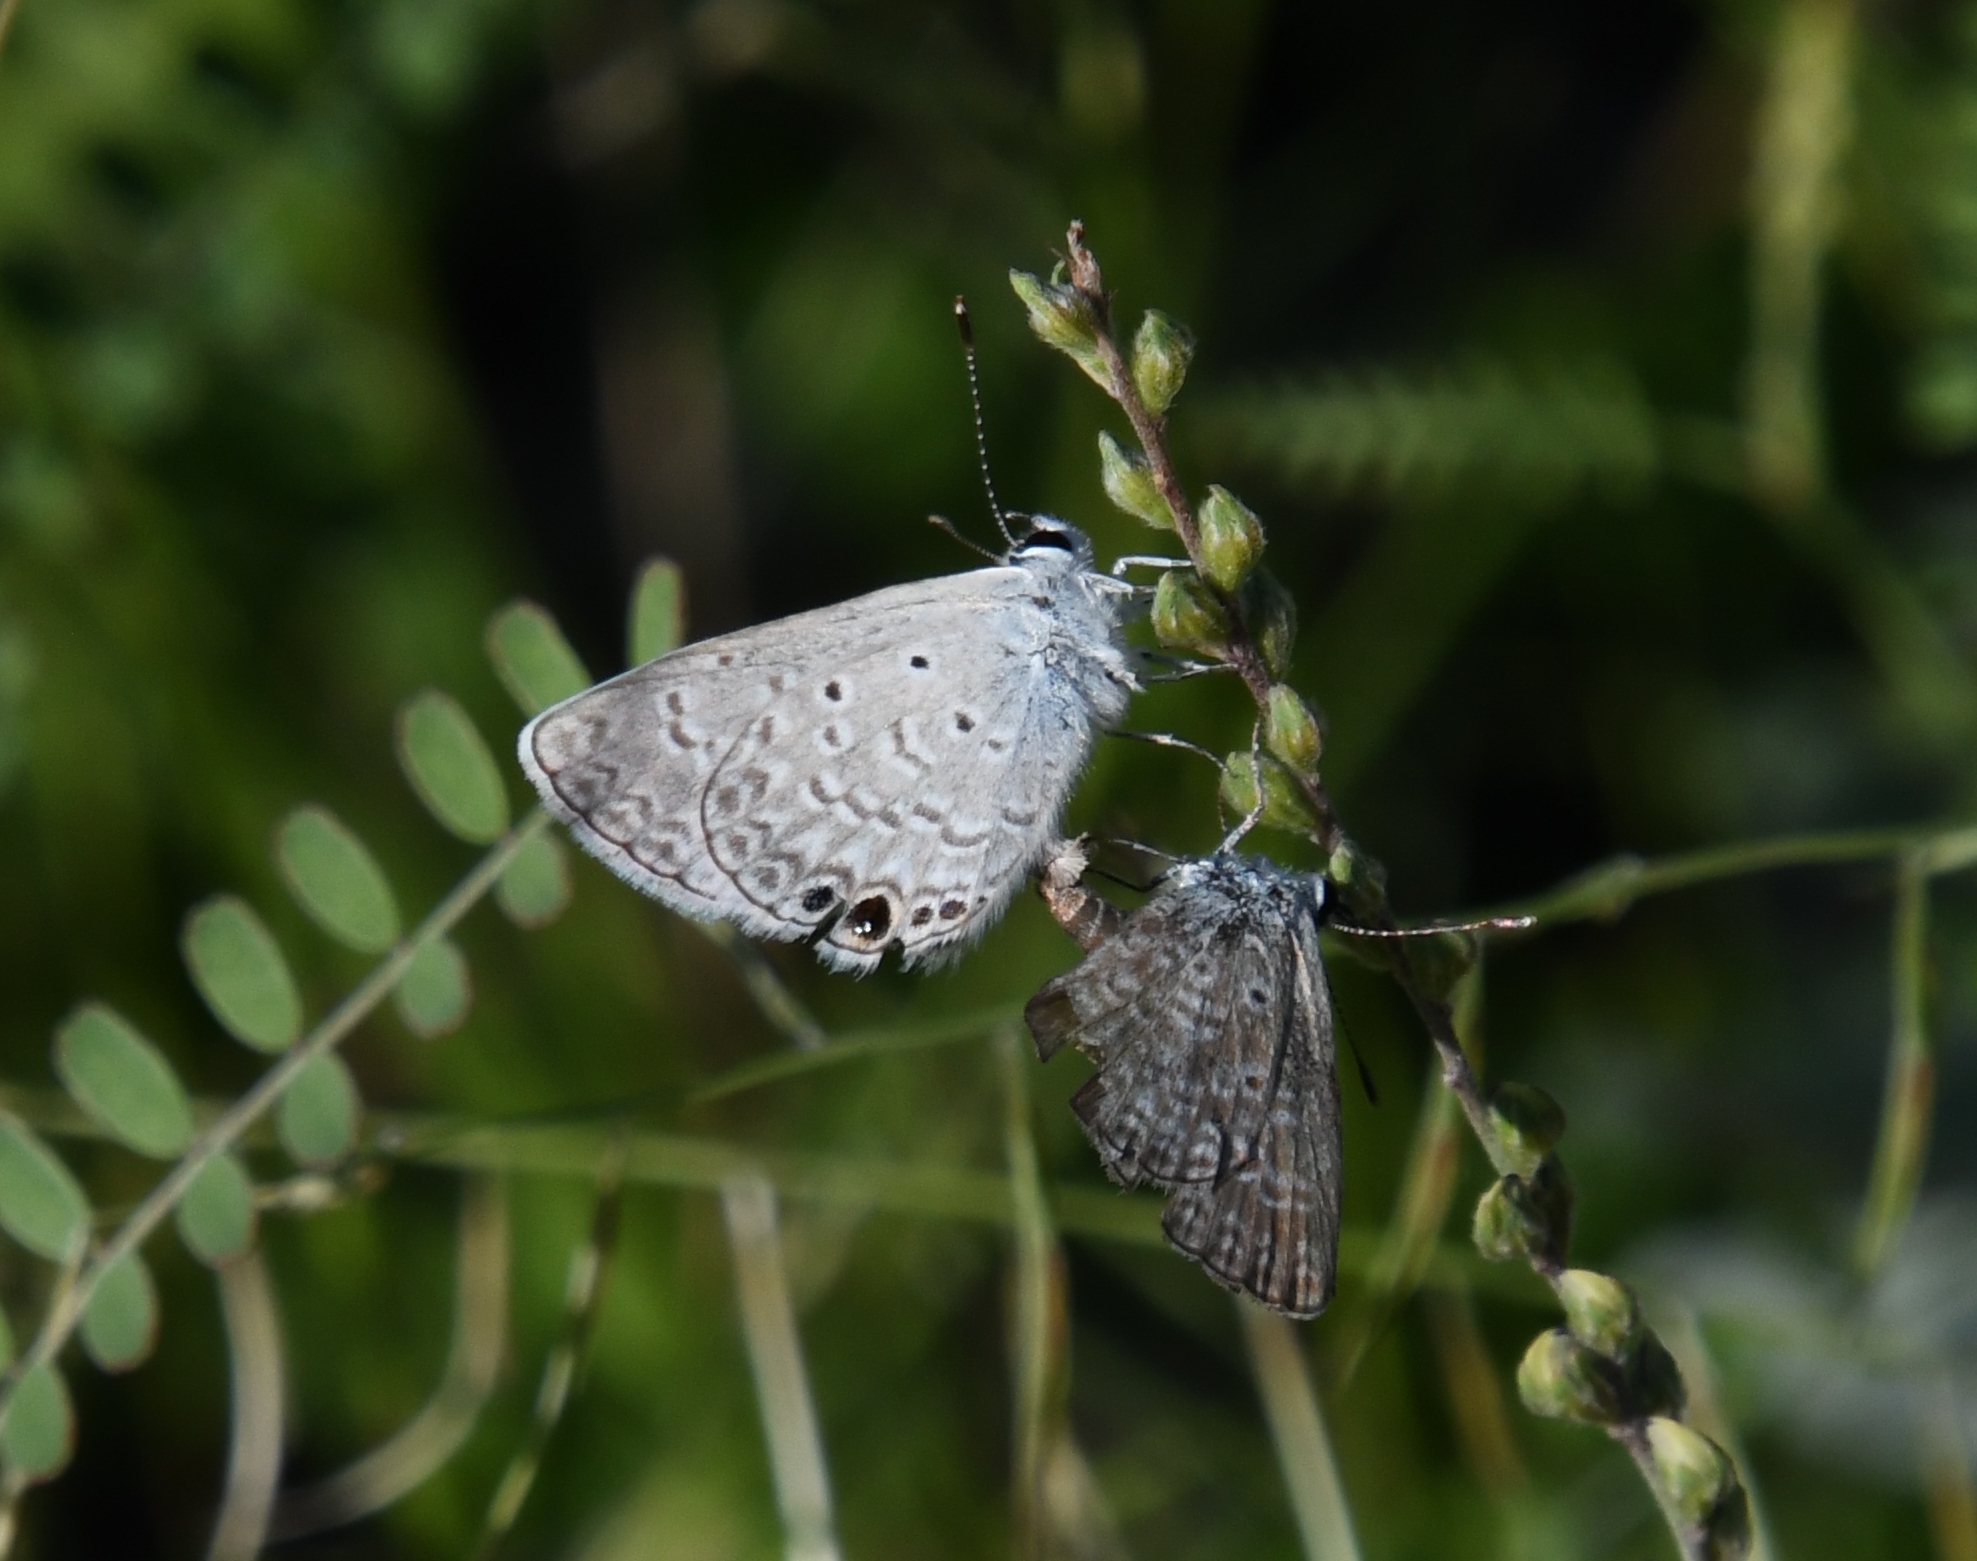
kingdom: Animalia
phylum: Arthropoda
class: Insecta
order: Lepidoptera
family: Lycaenidae
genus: Hemiargus
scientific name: Hemiargus ceraunus
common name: Ceraunus blue
